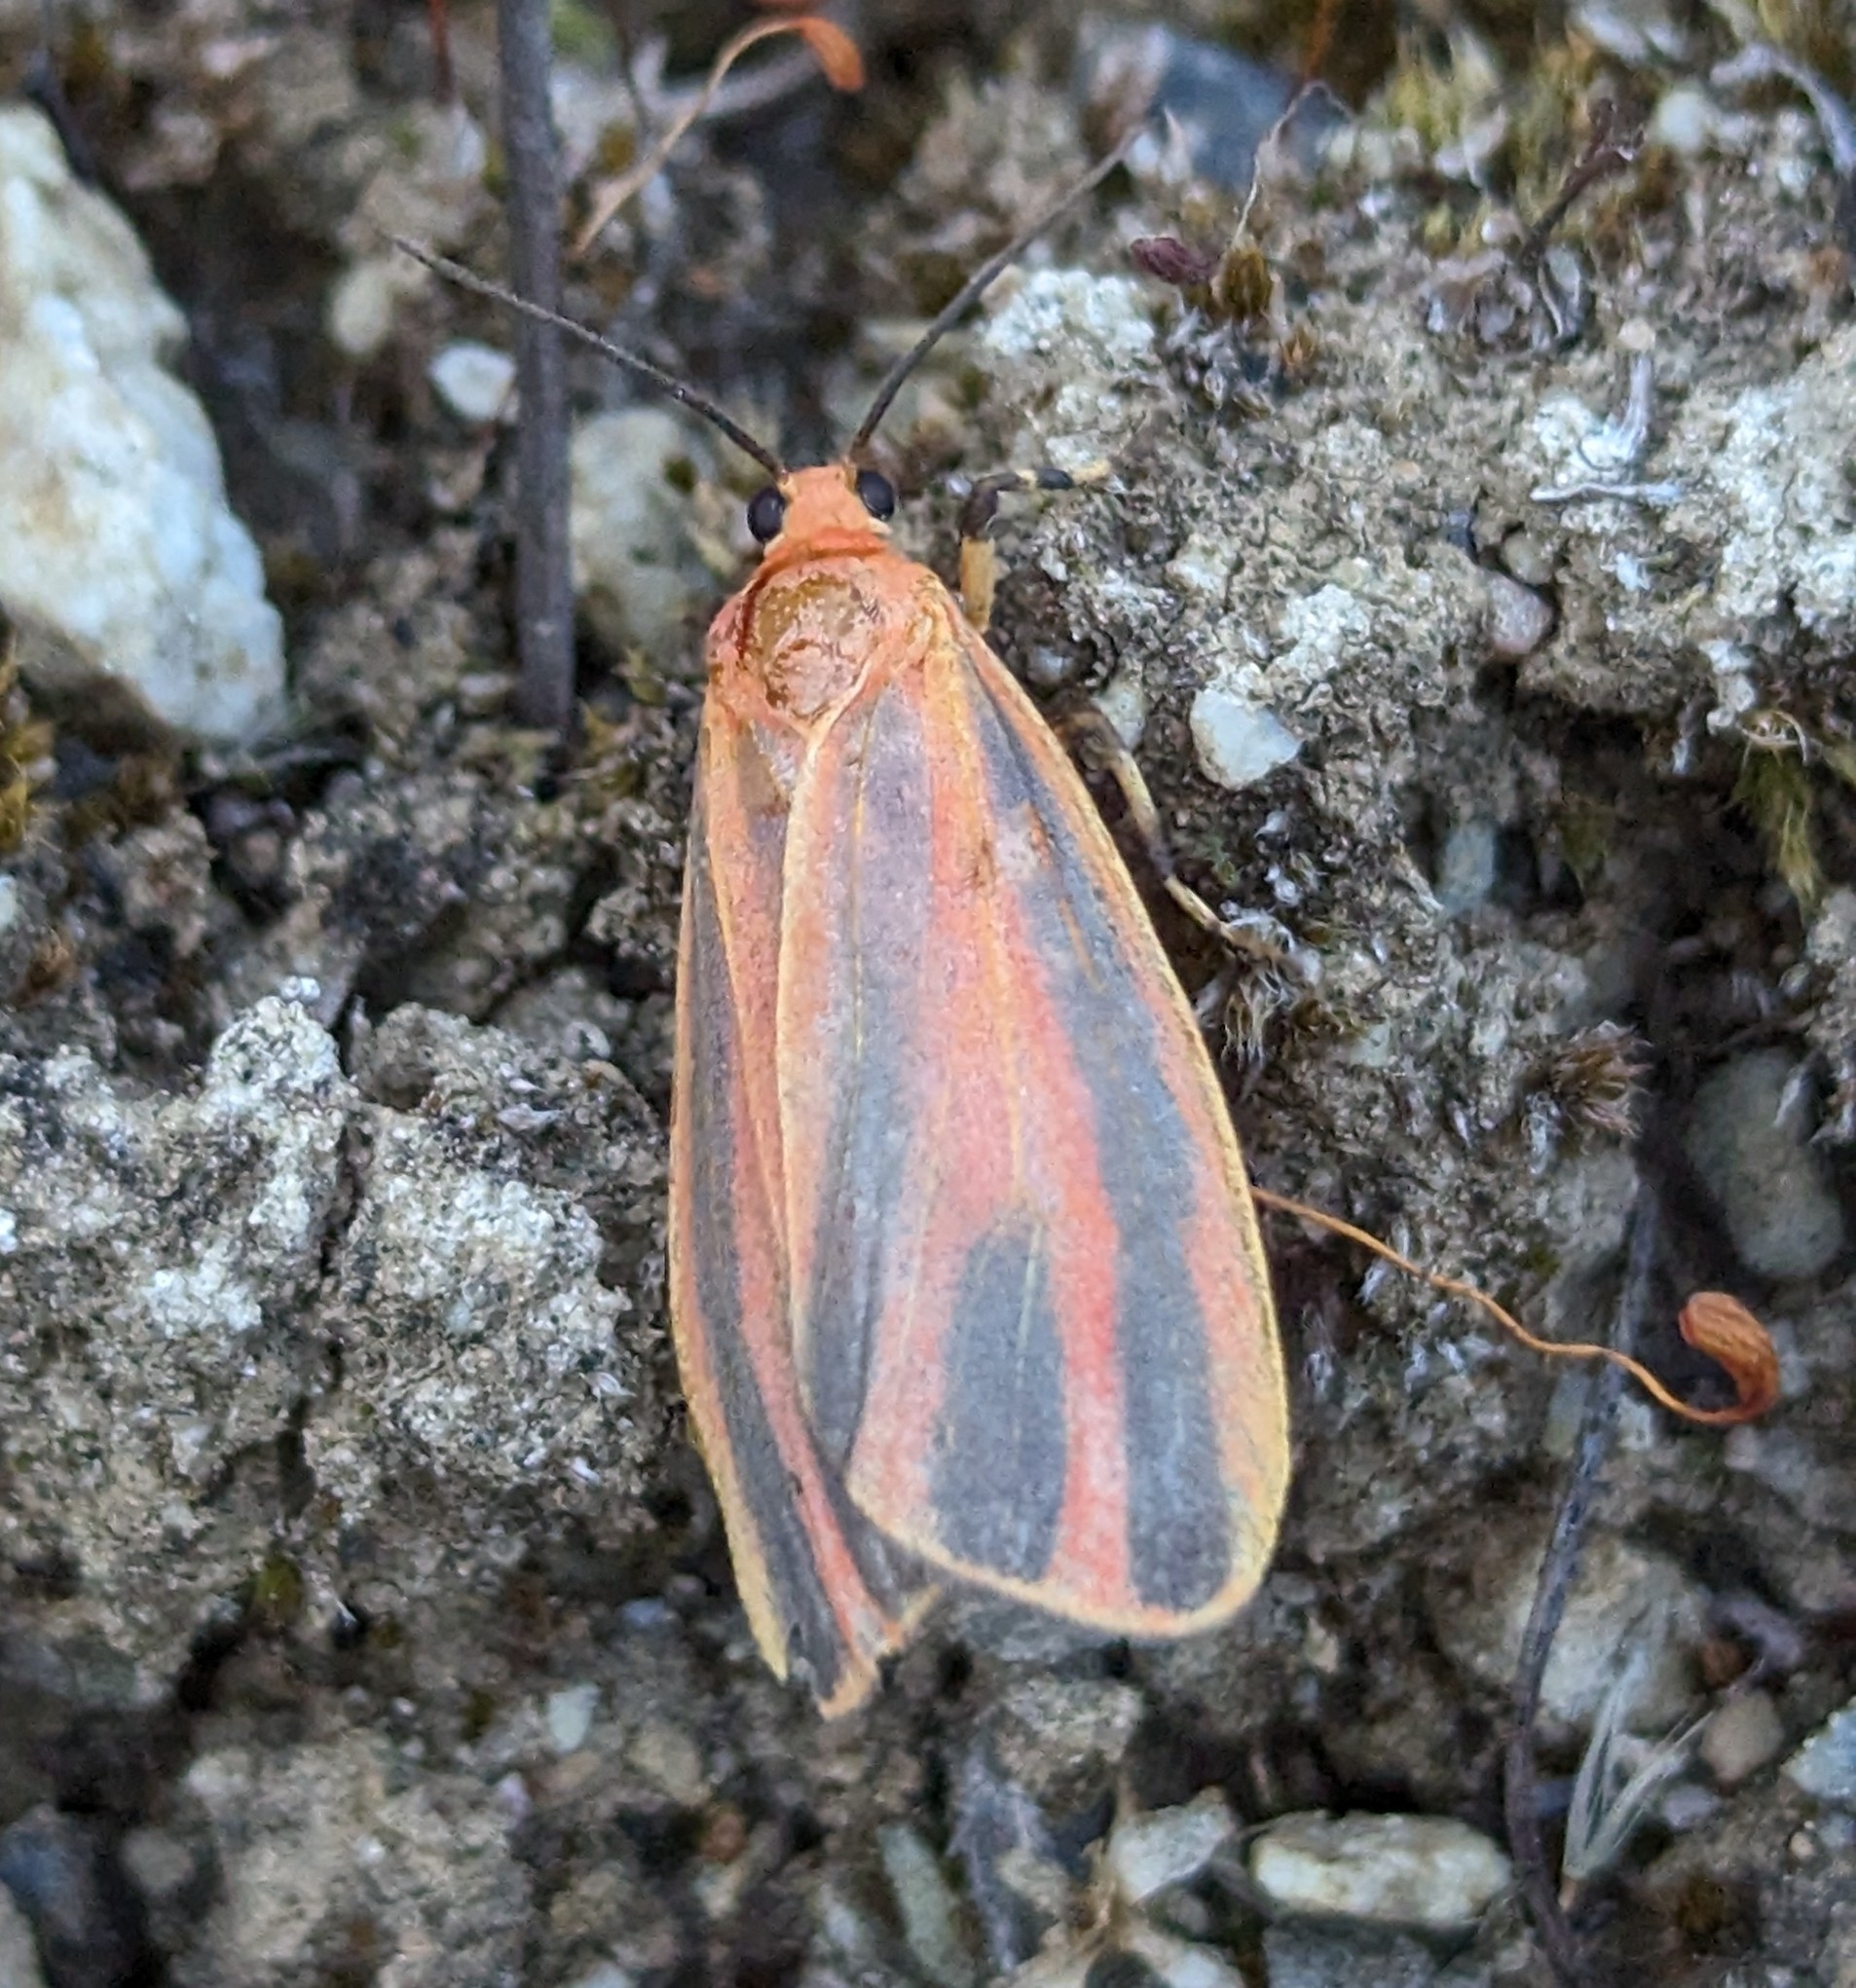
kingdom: Animalia
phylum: Arthropoda
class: Insecta
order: Lepidoptera
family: Erebidae
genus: Hypoprepia
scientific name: Hypoprepia miniata
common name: Scarlet-winged lichen moth
